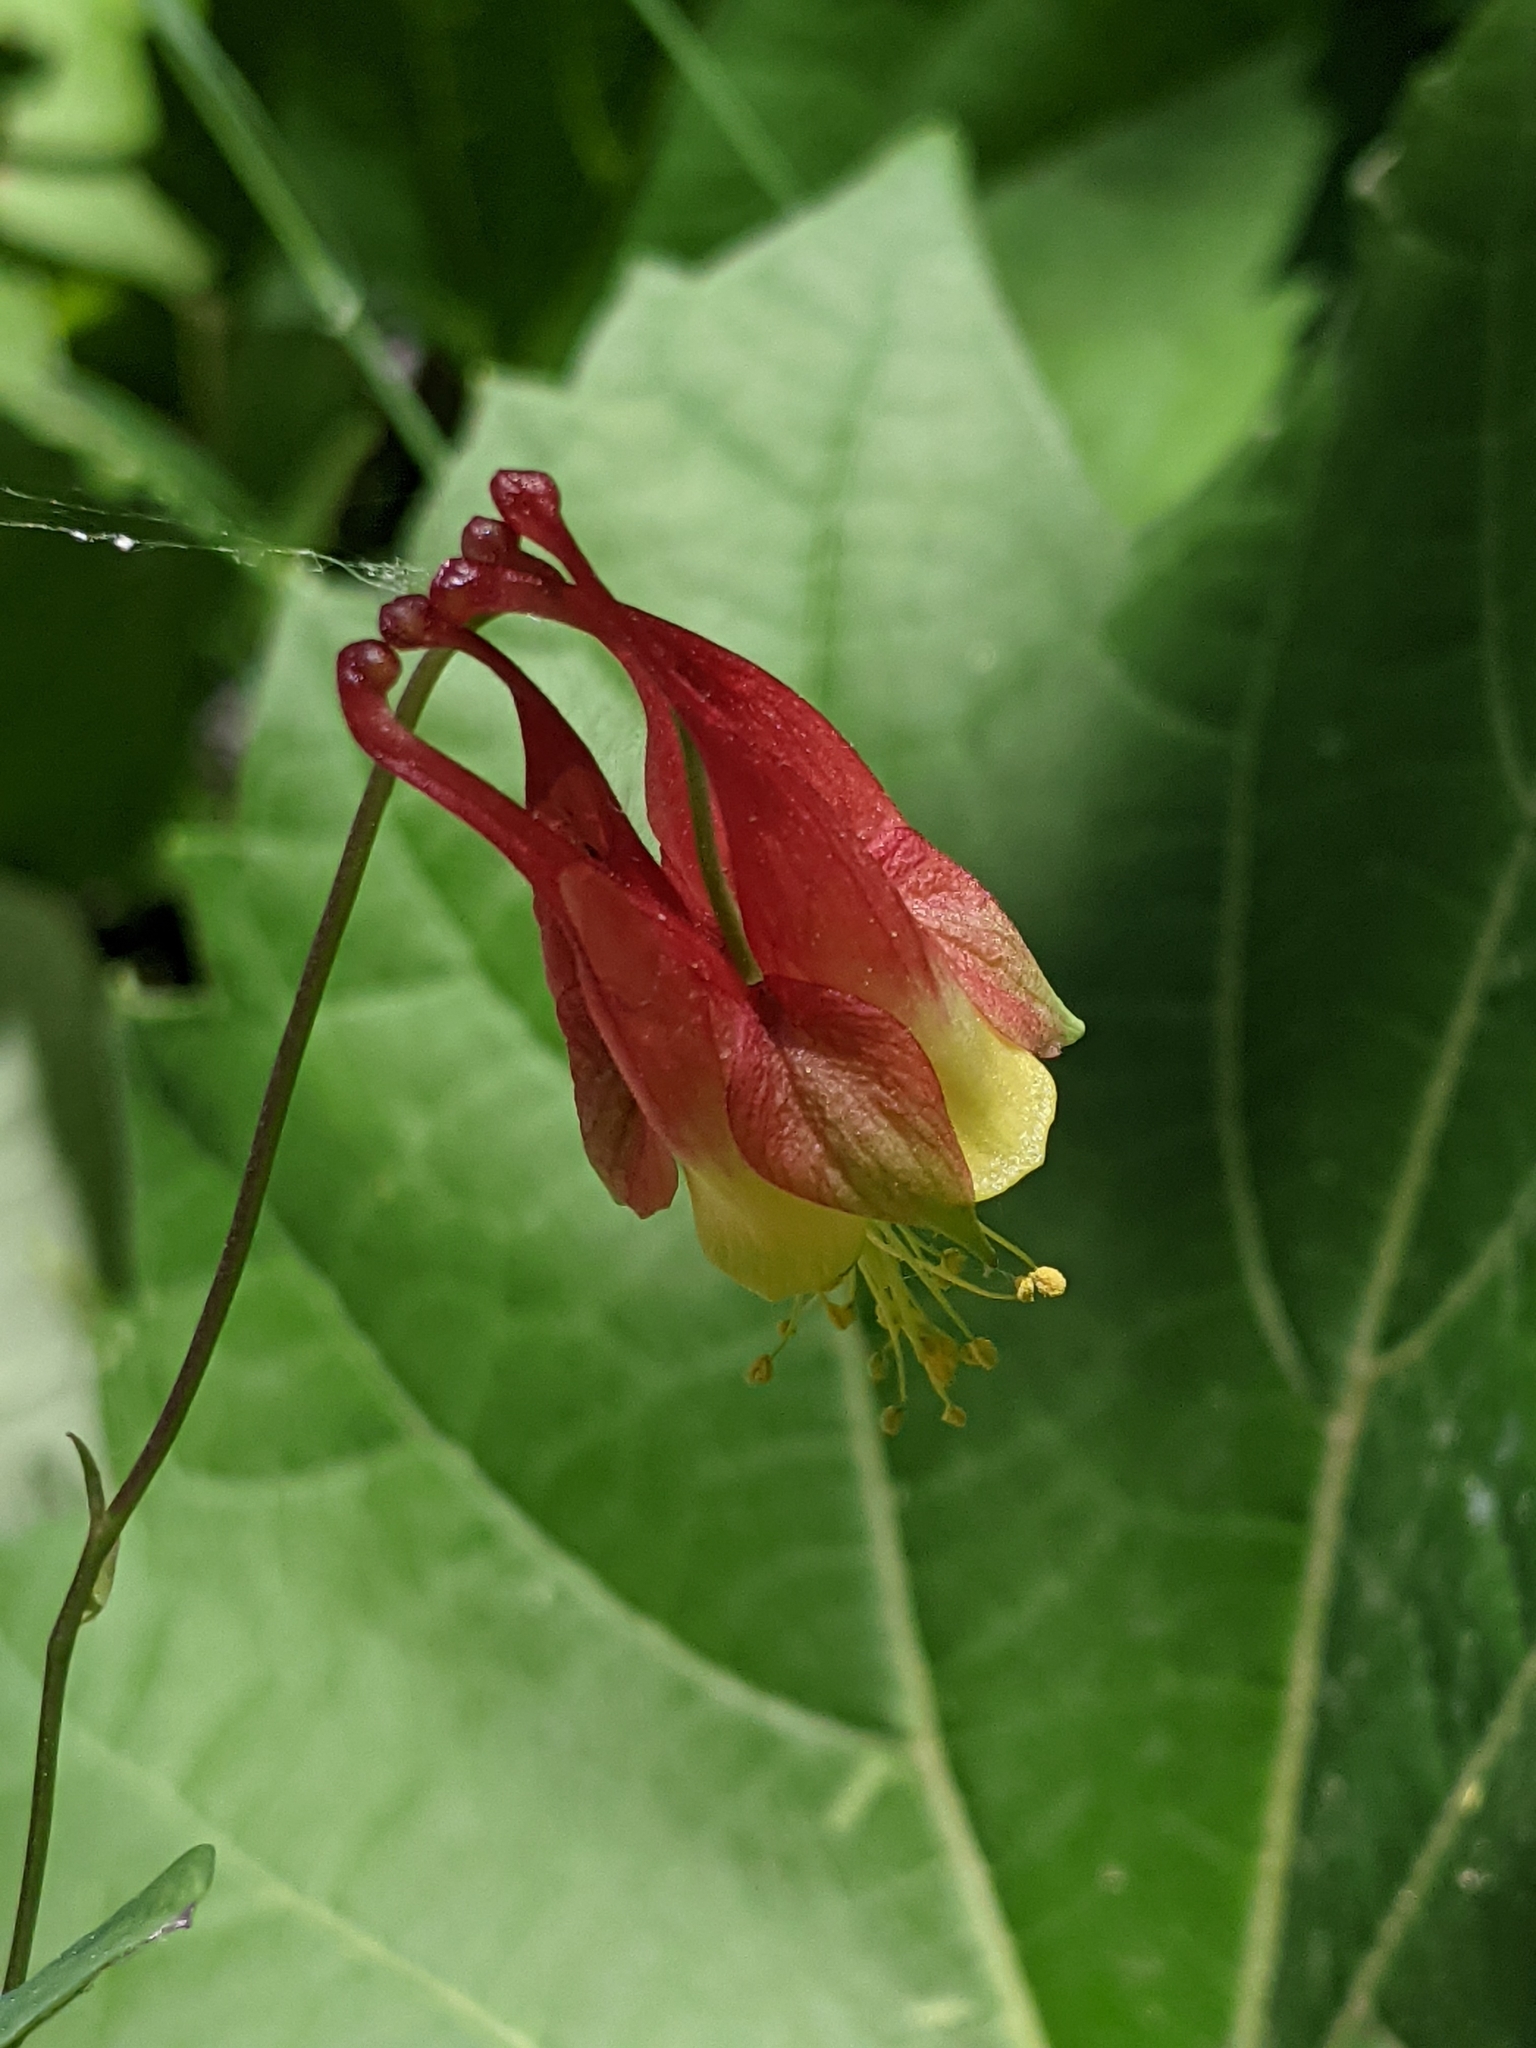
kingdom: Plantae
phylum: Tracheophyta
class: Magnoliopsida
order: Ranunculales
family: Ranunculaceae
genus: Aquilegia
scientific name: Aquilegia canadensis
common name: American columbine
